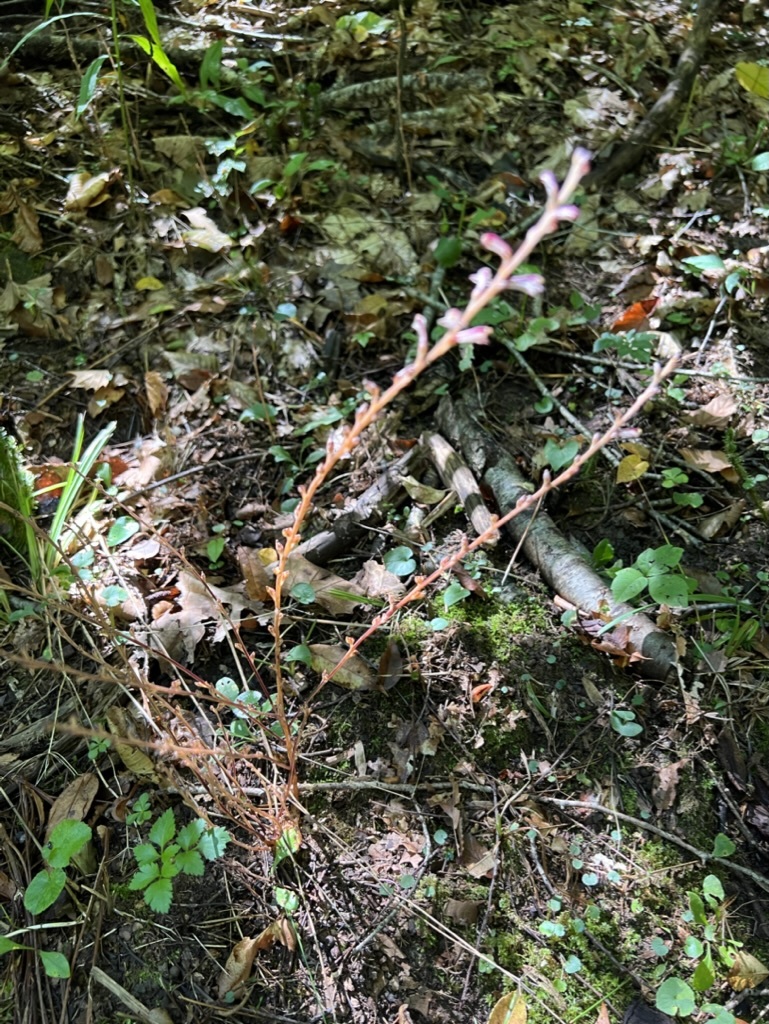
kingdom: Plantae
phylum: Tracheophyta
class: Magnoliopsida
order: Lamiales
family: Orobanchaceae
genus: Epifagus
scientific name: Epifagus virginiana
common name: Beechdrops
